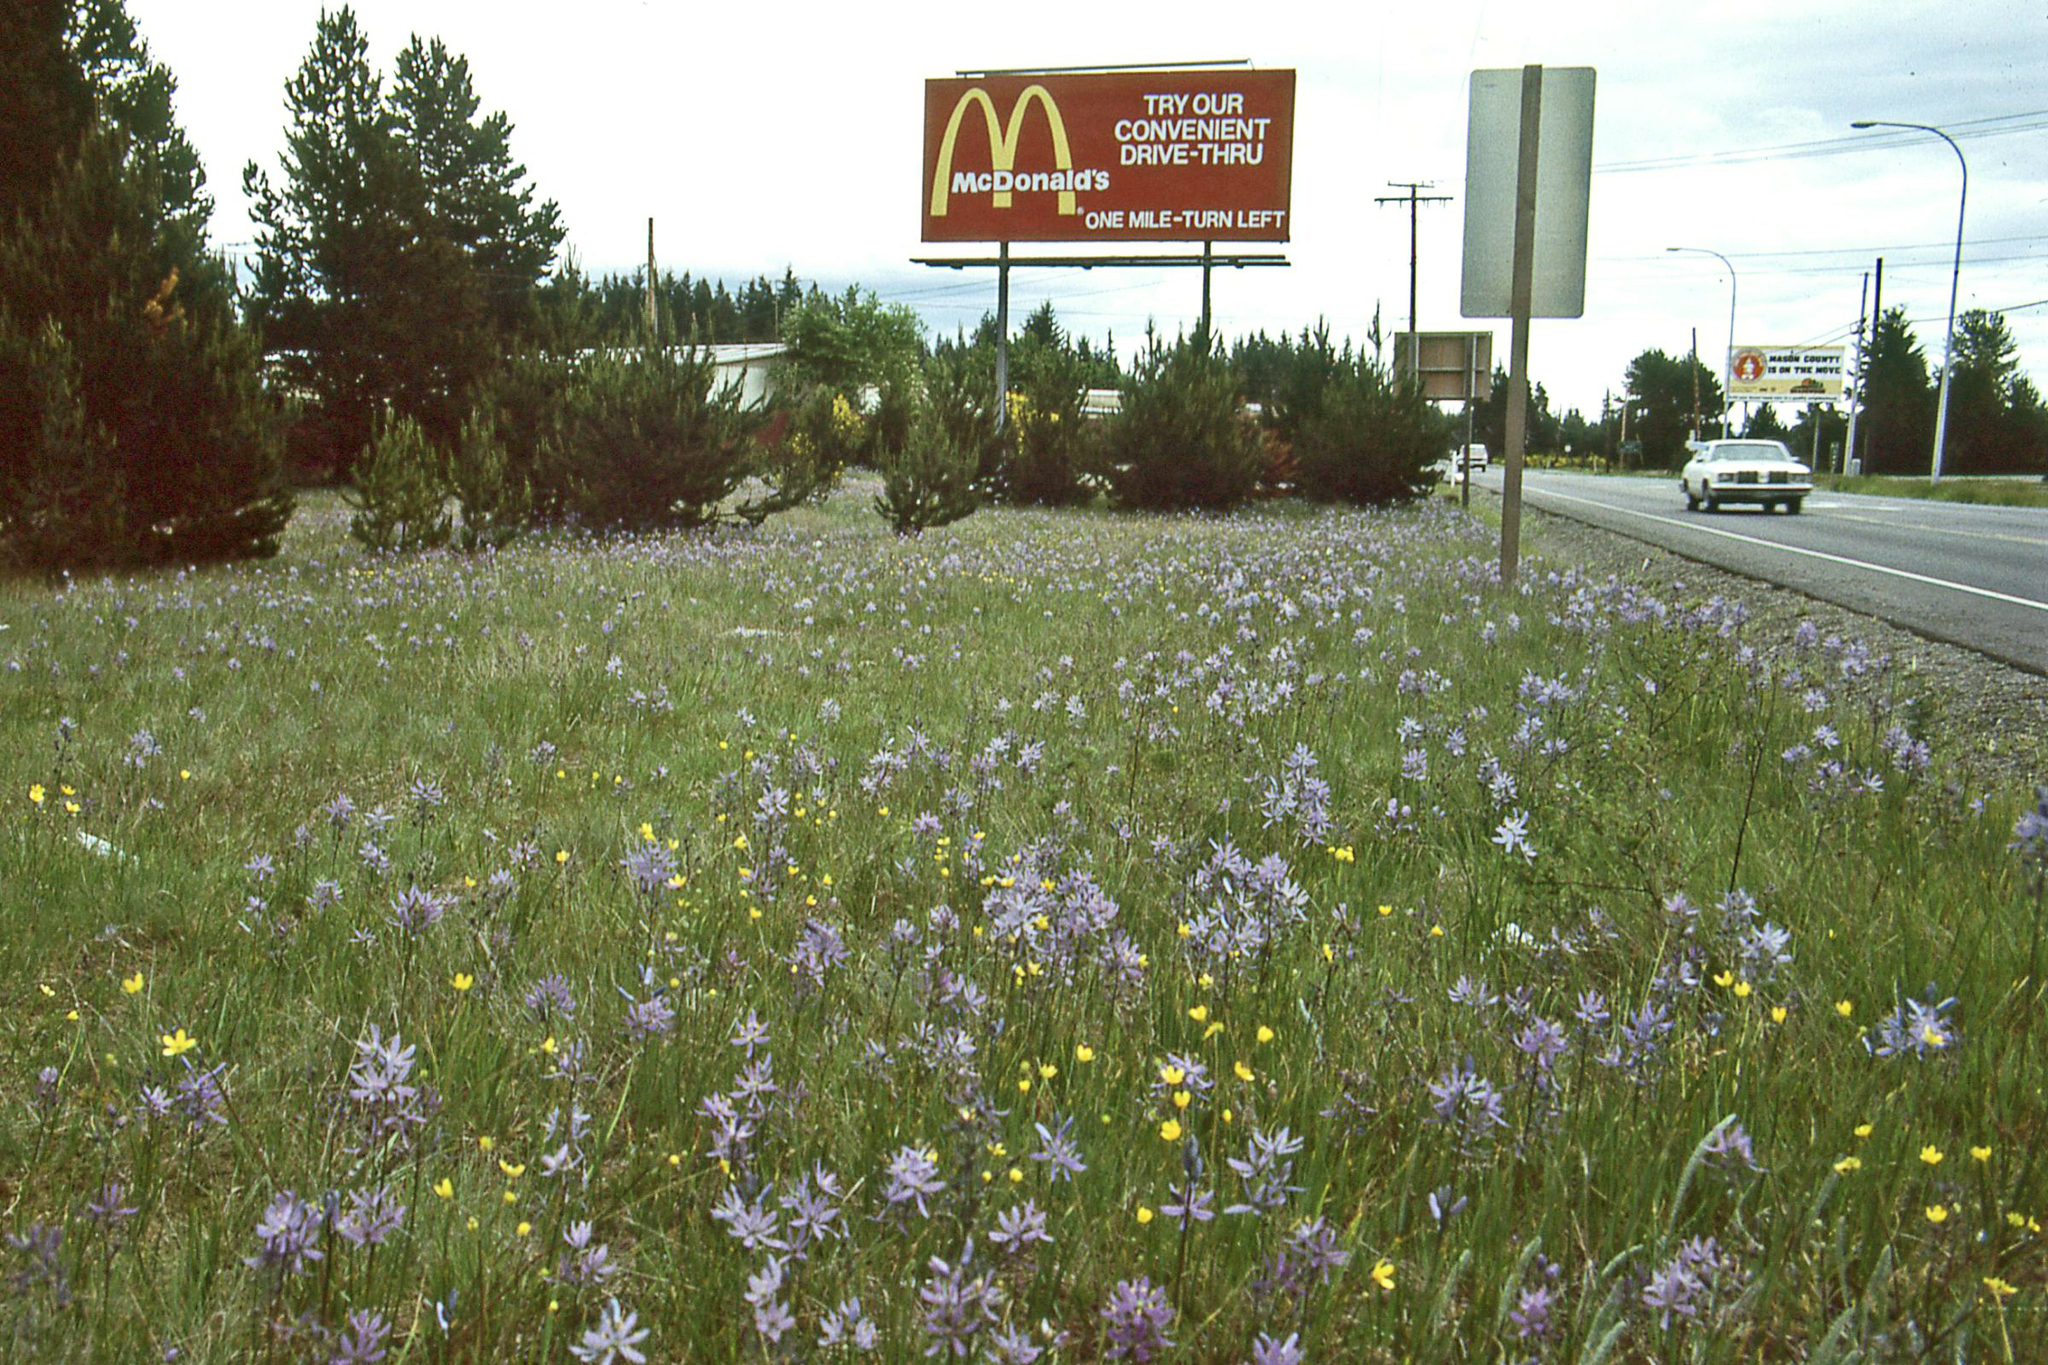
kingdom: Plantae
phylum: Tracheophyta
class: Liliopsida
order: Asparagales
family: Asparagaceae
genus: Camassia
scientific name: Camassia quamash
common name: Common camas
